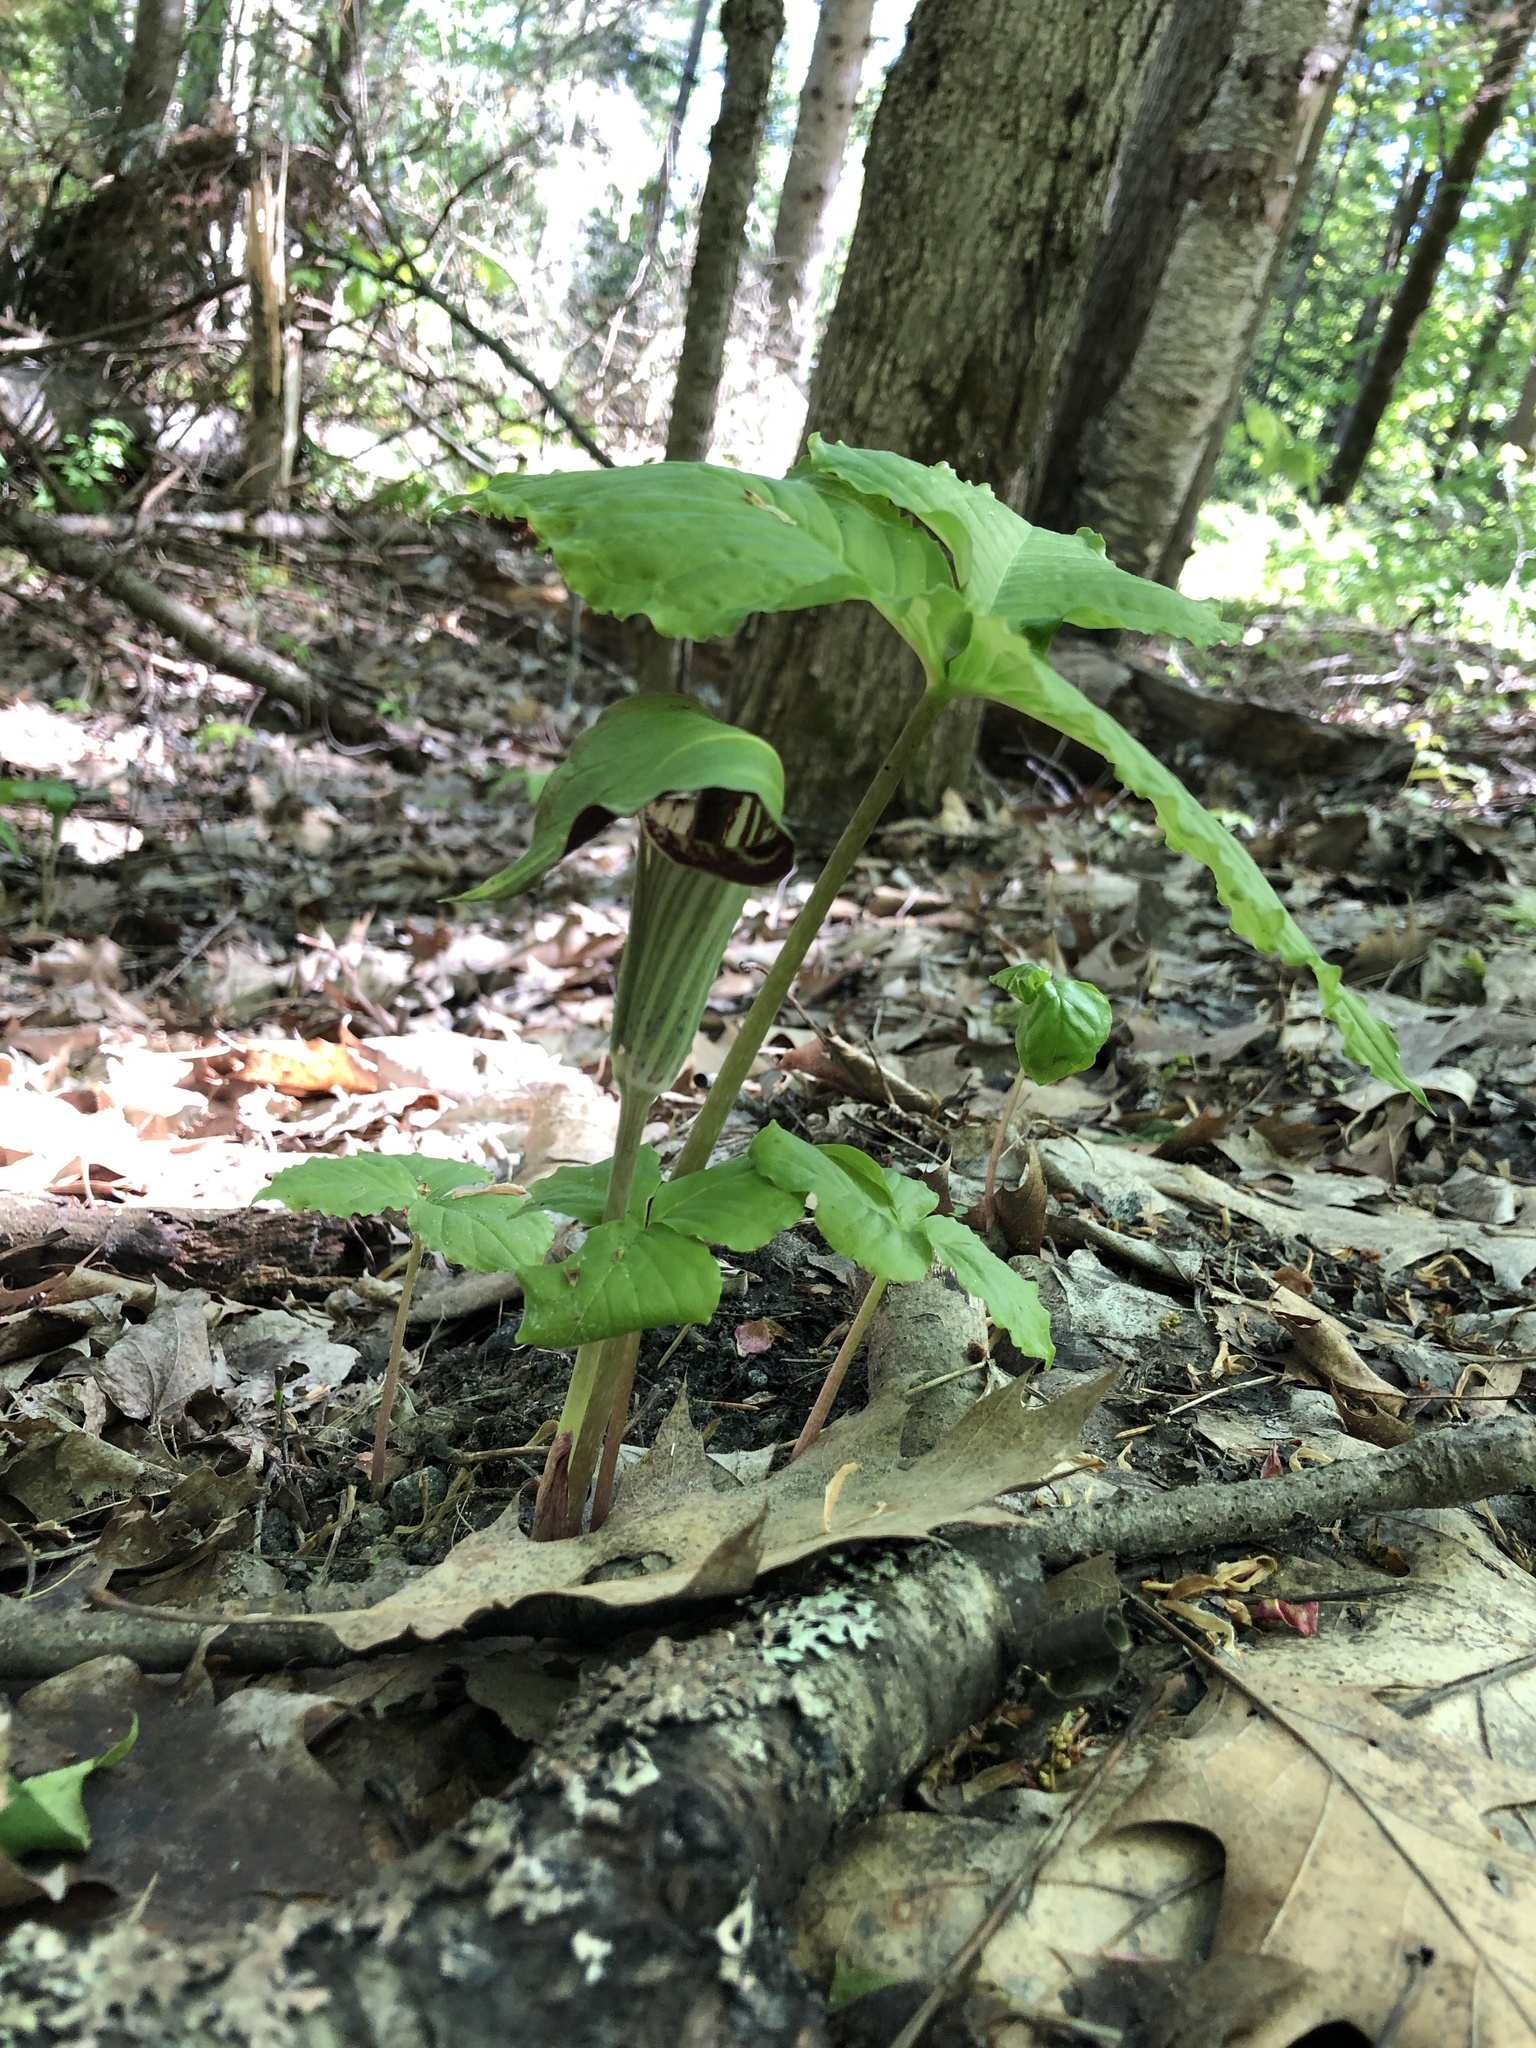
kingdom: Plantae
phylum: Tracheophyta
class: Liliopsida
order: Alismatales
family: Araceae
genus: Arisaema
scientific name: Arisaema triphyllum
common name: Jack-in-the-pulpit
